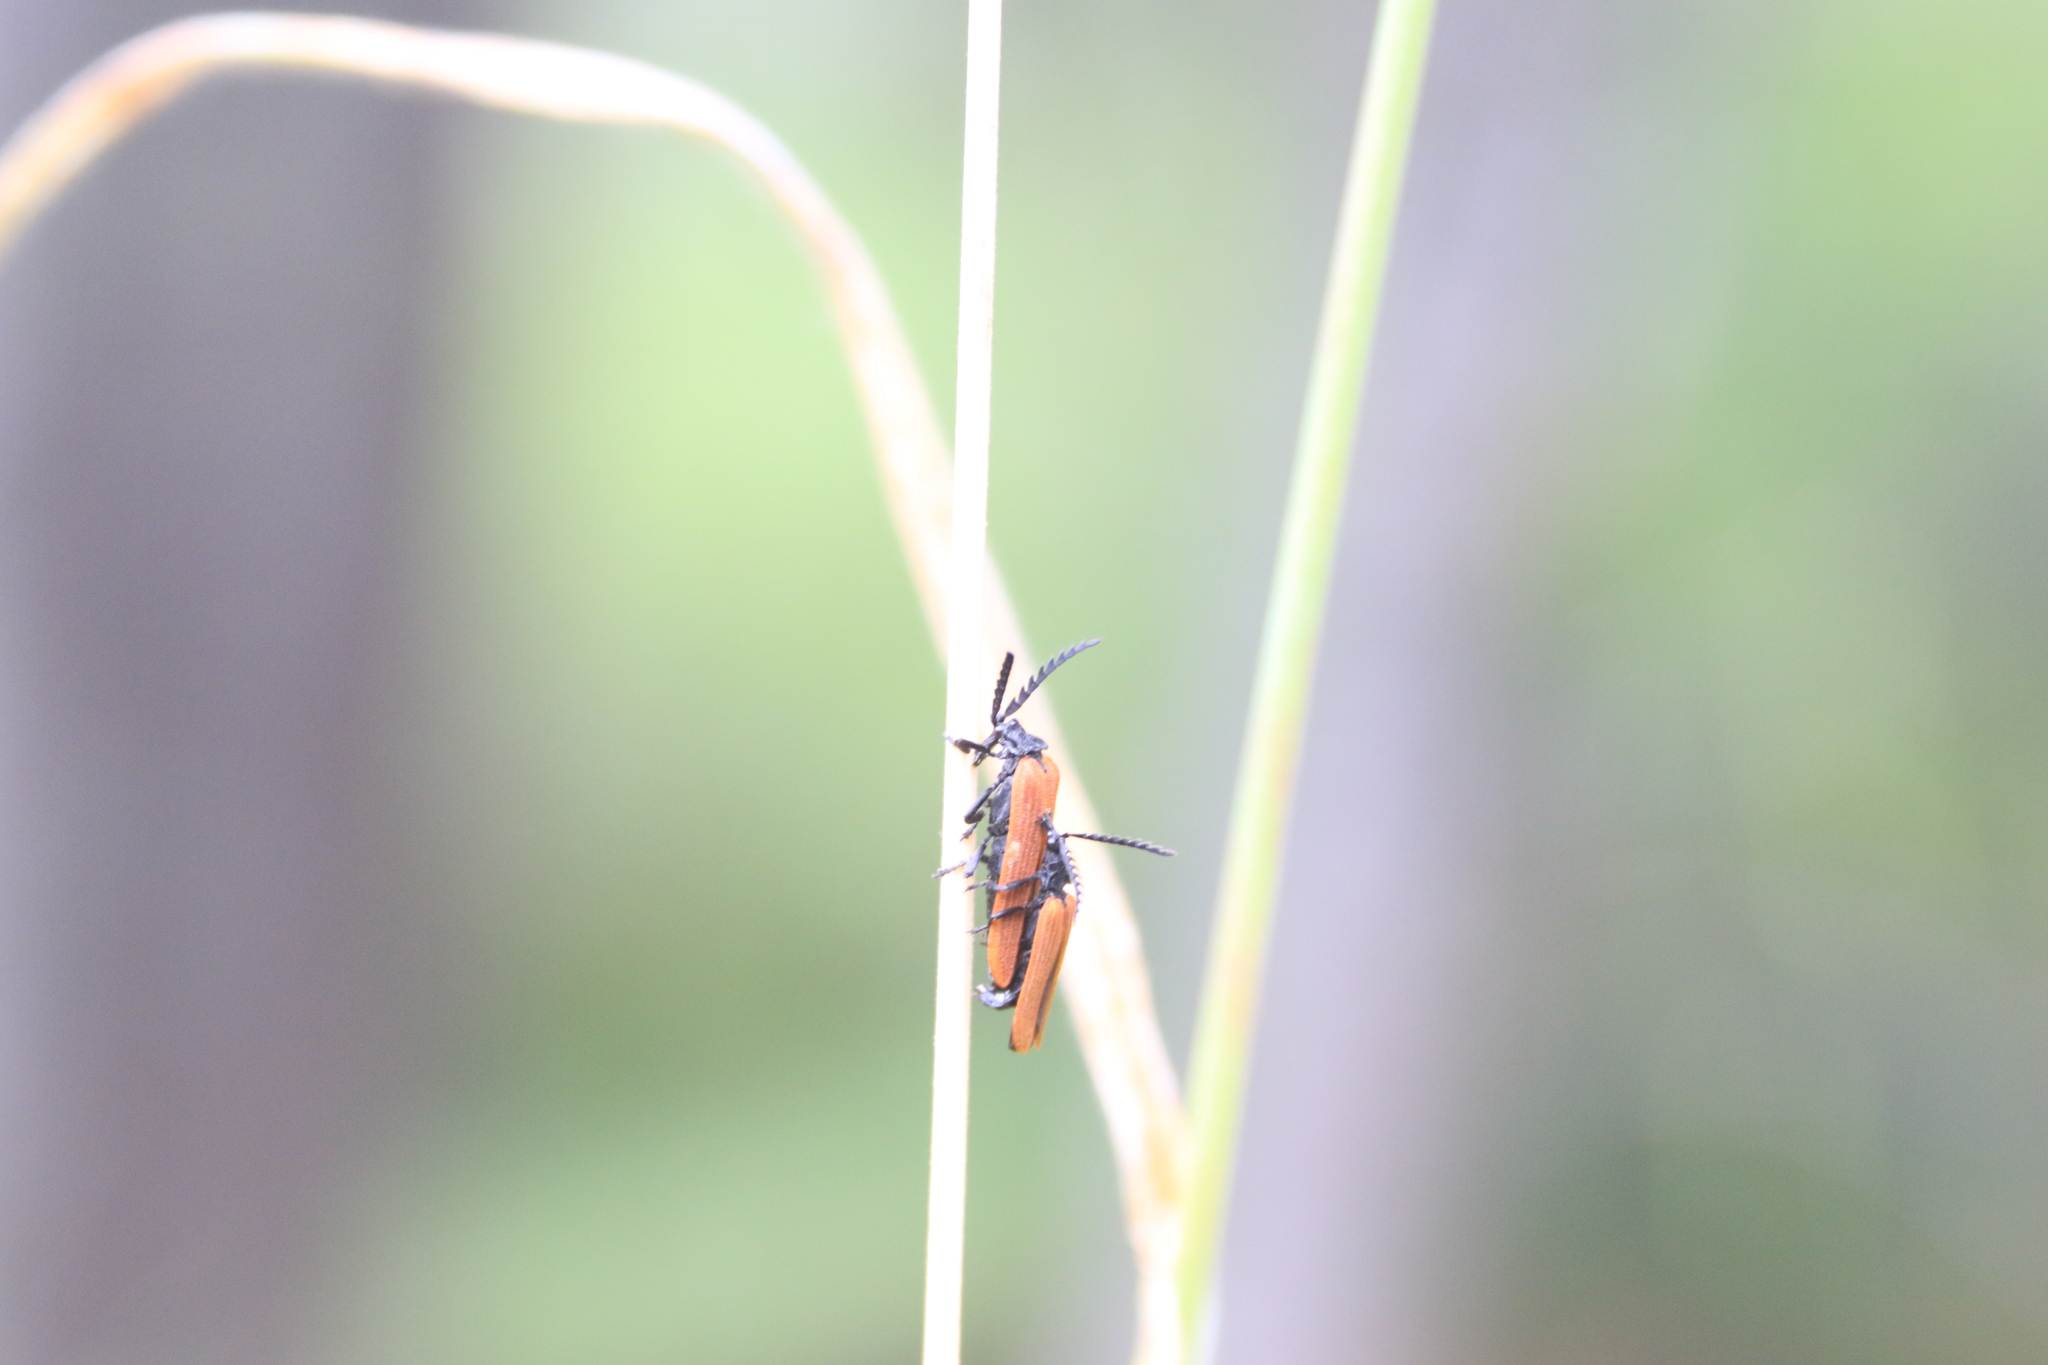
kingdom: Animalia
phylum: Arthropoda
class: Insecta
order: Coleoptera
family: Lycidae
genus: Porrostoma
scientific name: Porrostoma rhipidium
